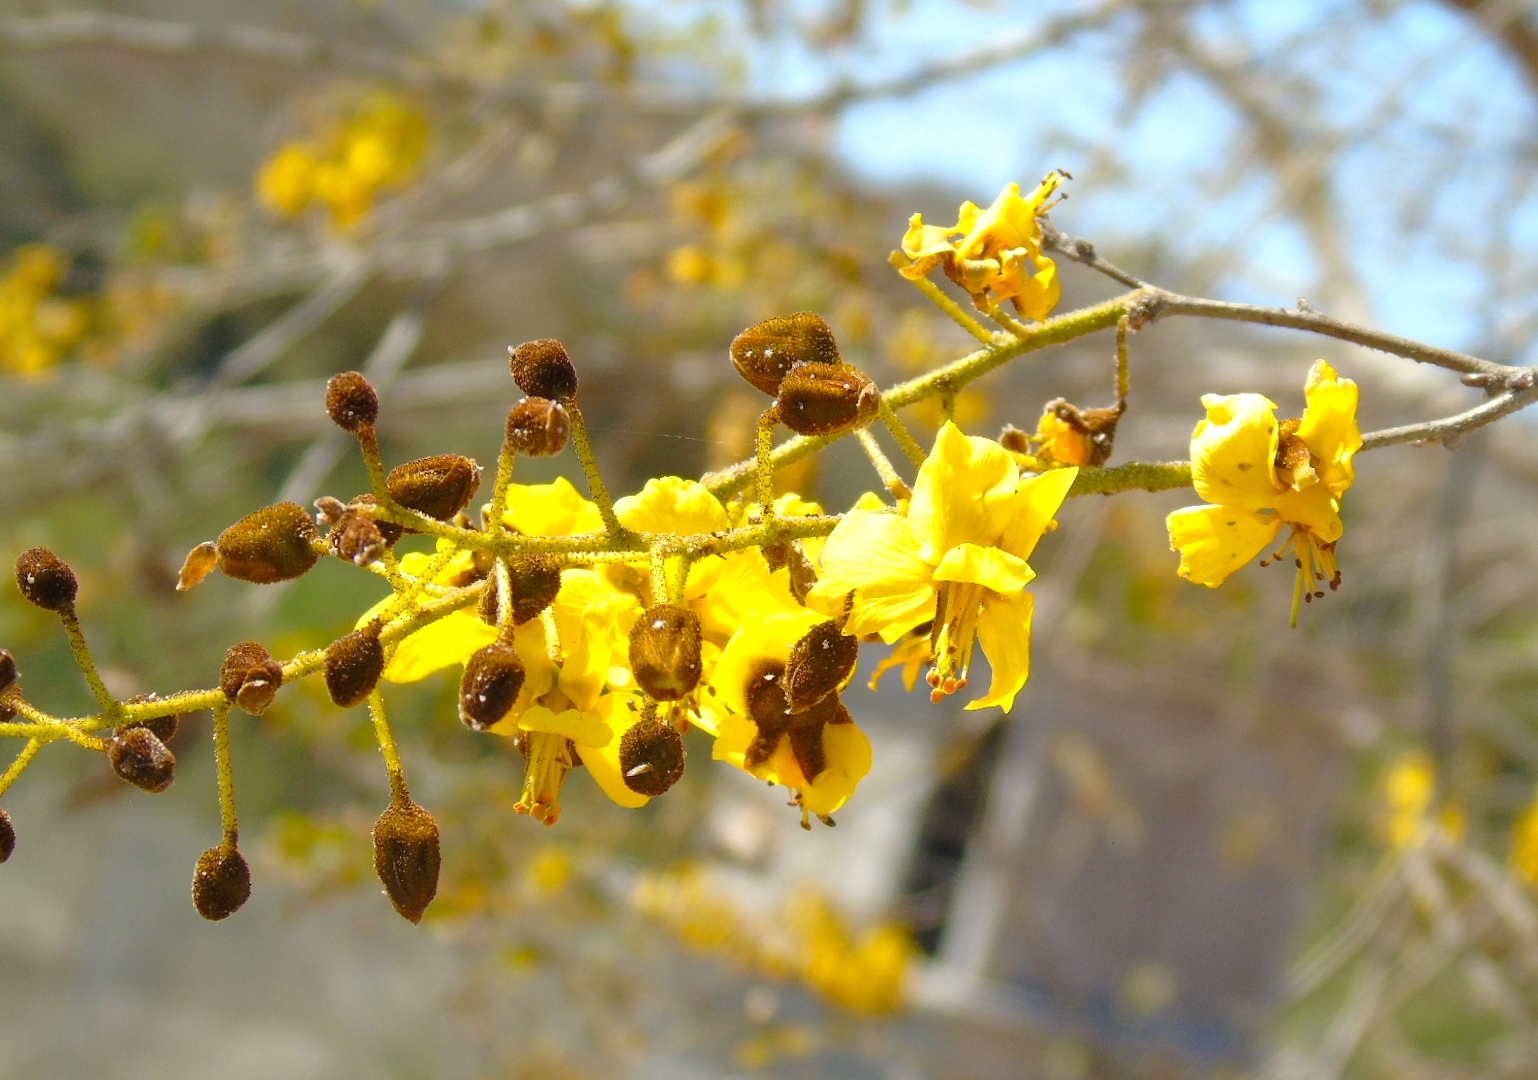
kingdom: Plantae
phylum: Tracheophyta
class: Magnoliopsida
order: Fabales
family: Fabaceae
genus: Cenostigma
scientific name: Cenostigma eriostachys
